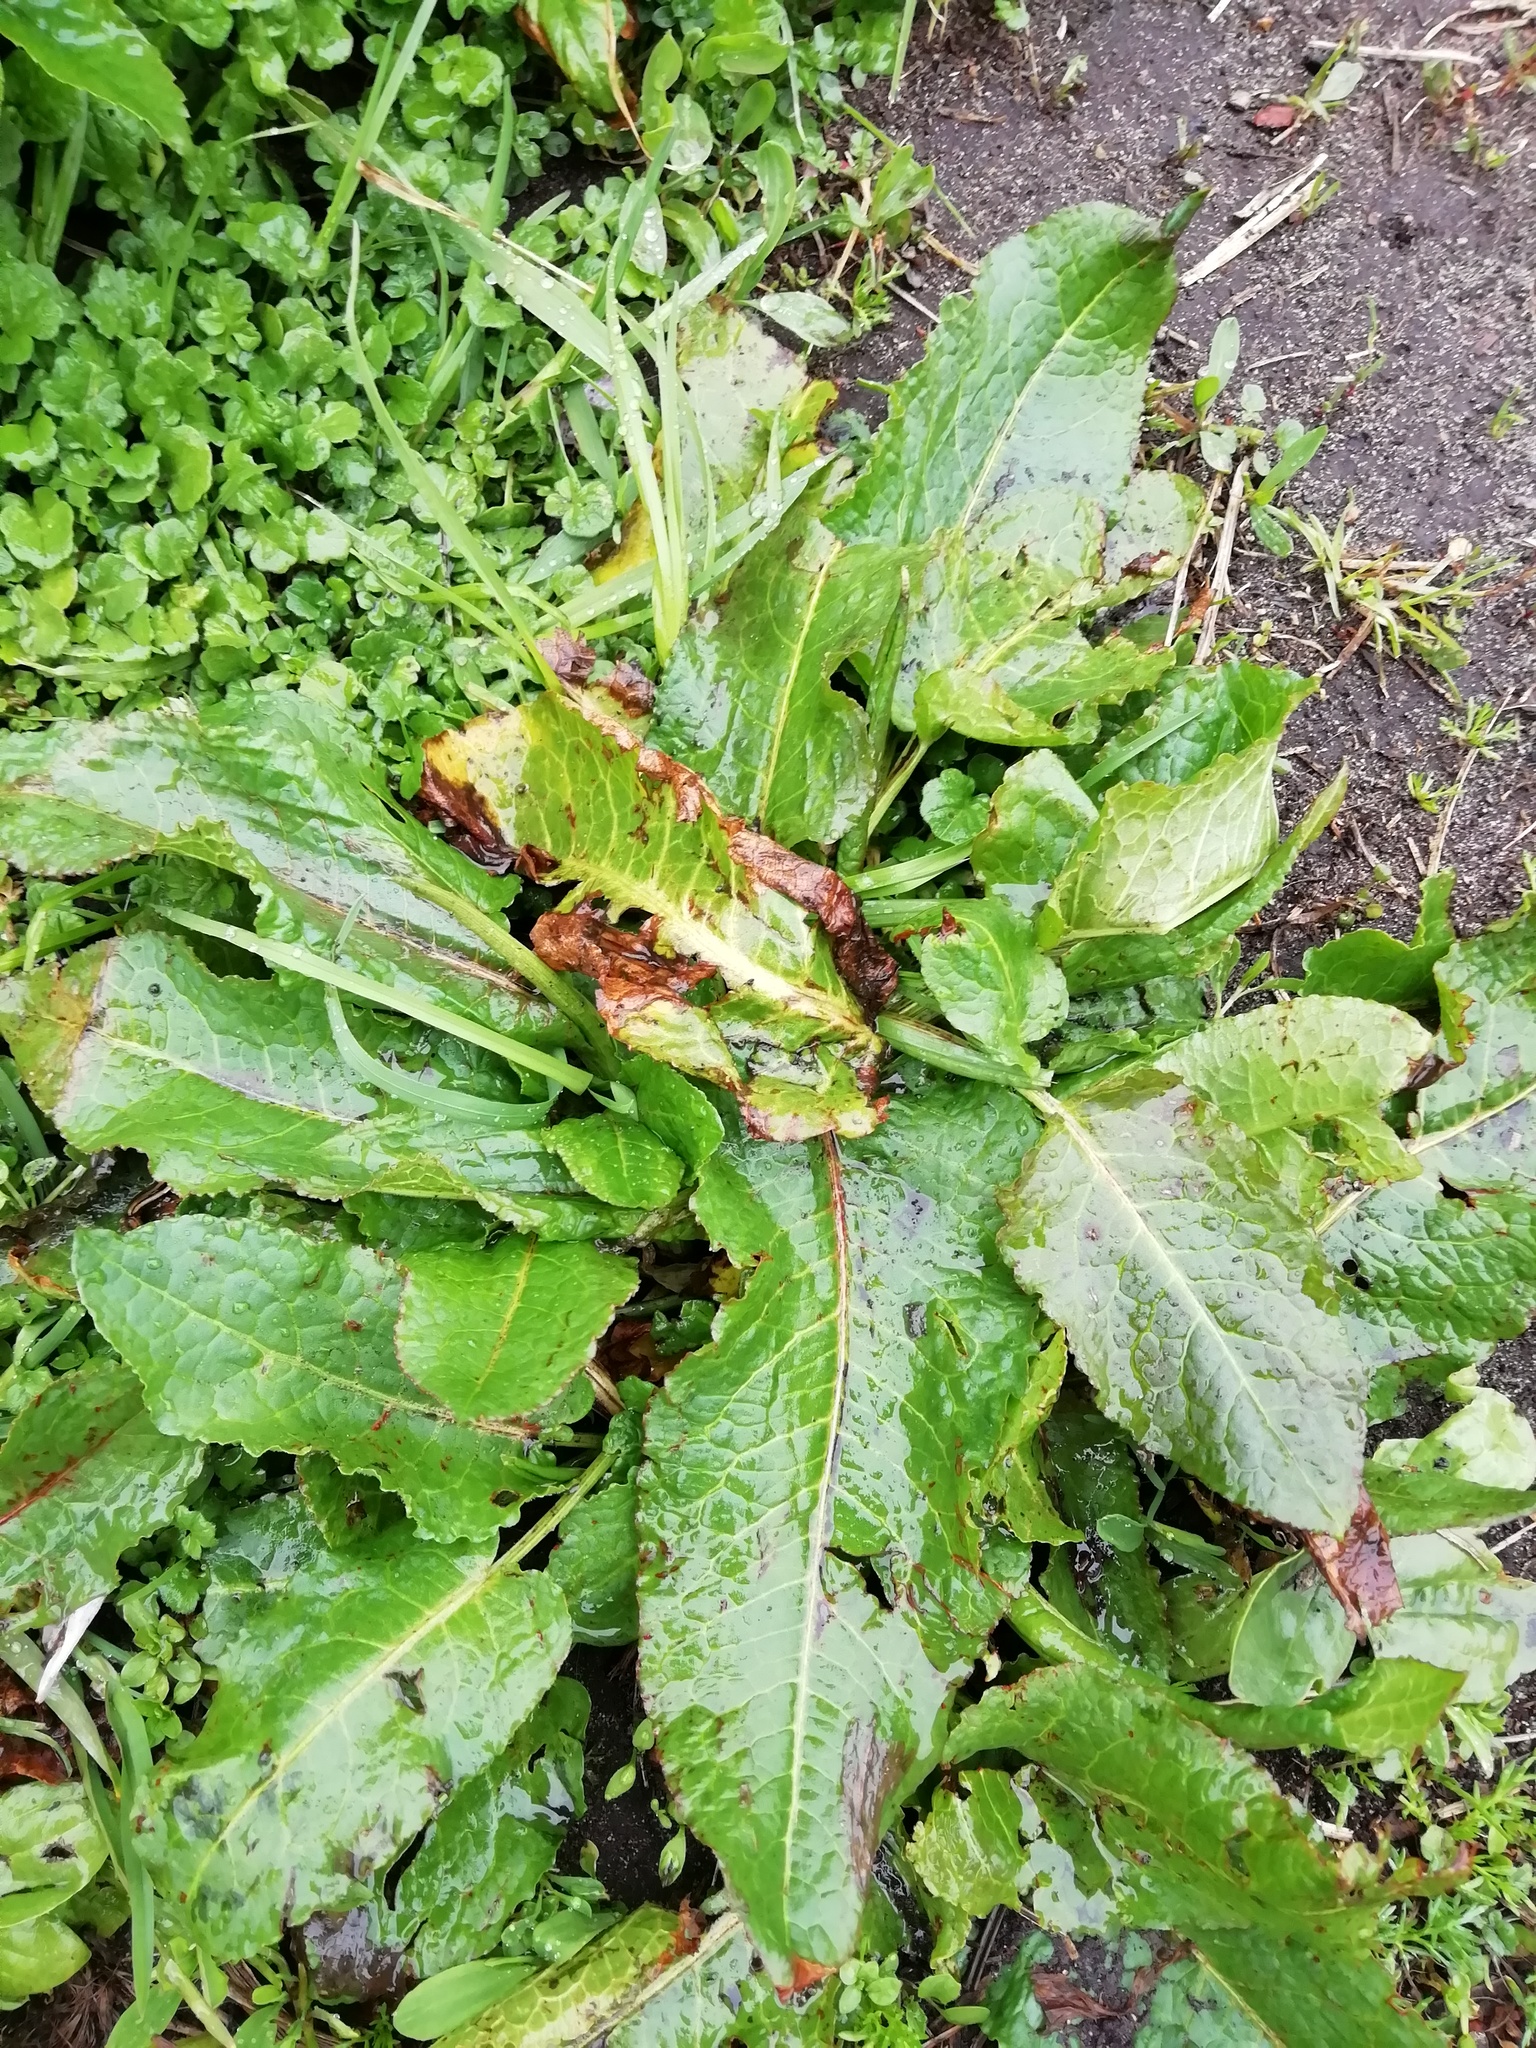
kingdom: Plantae
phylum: Tracheophyta
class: Magnoliopsida
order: Caryophyllales
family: Polygonaceae
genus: Rumex
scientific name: Rumex obtusifolius
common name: Bitter dock
